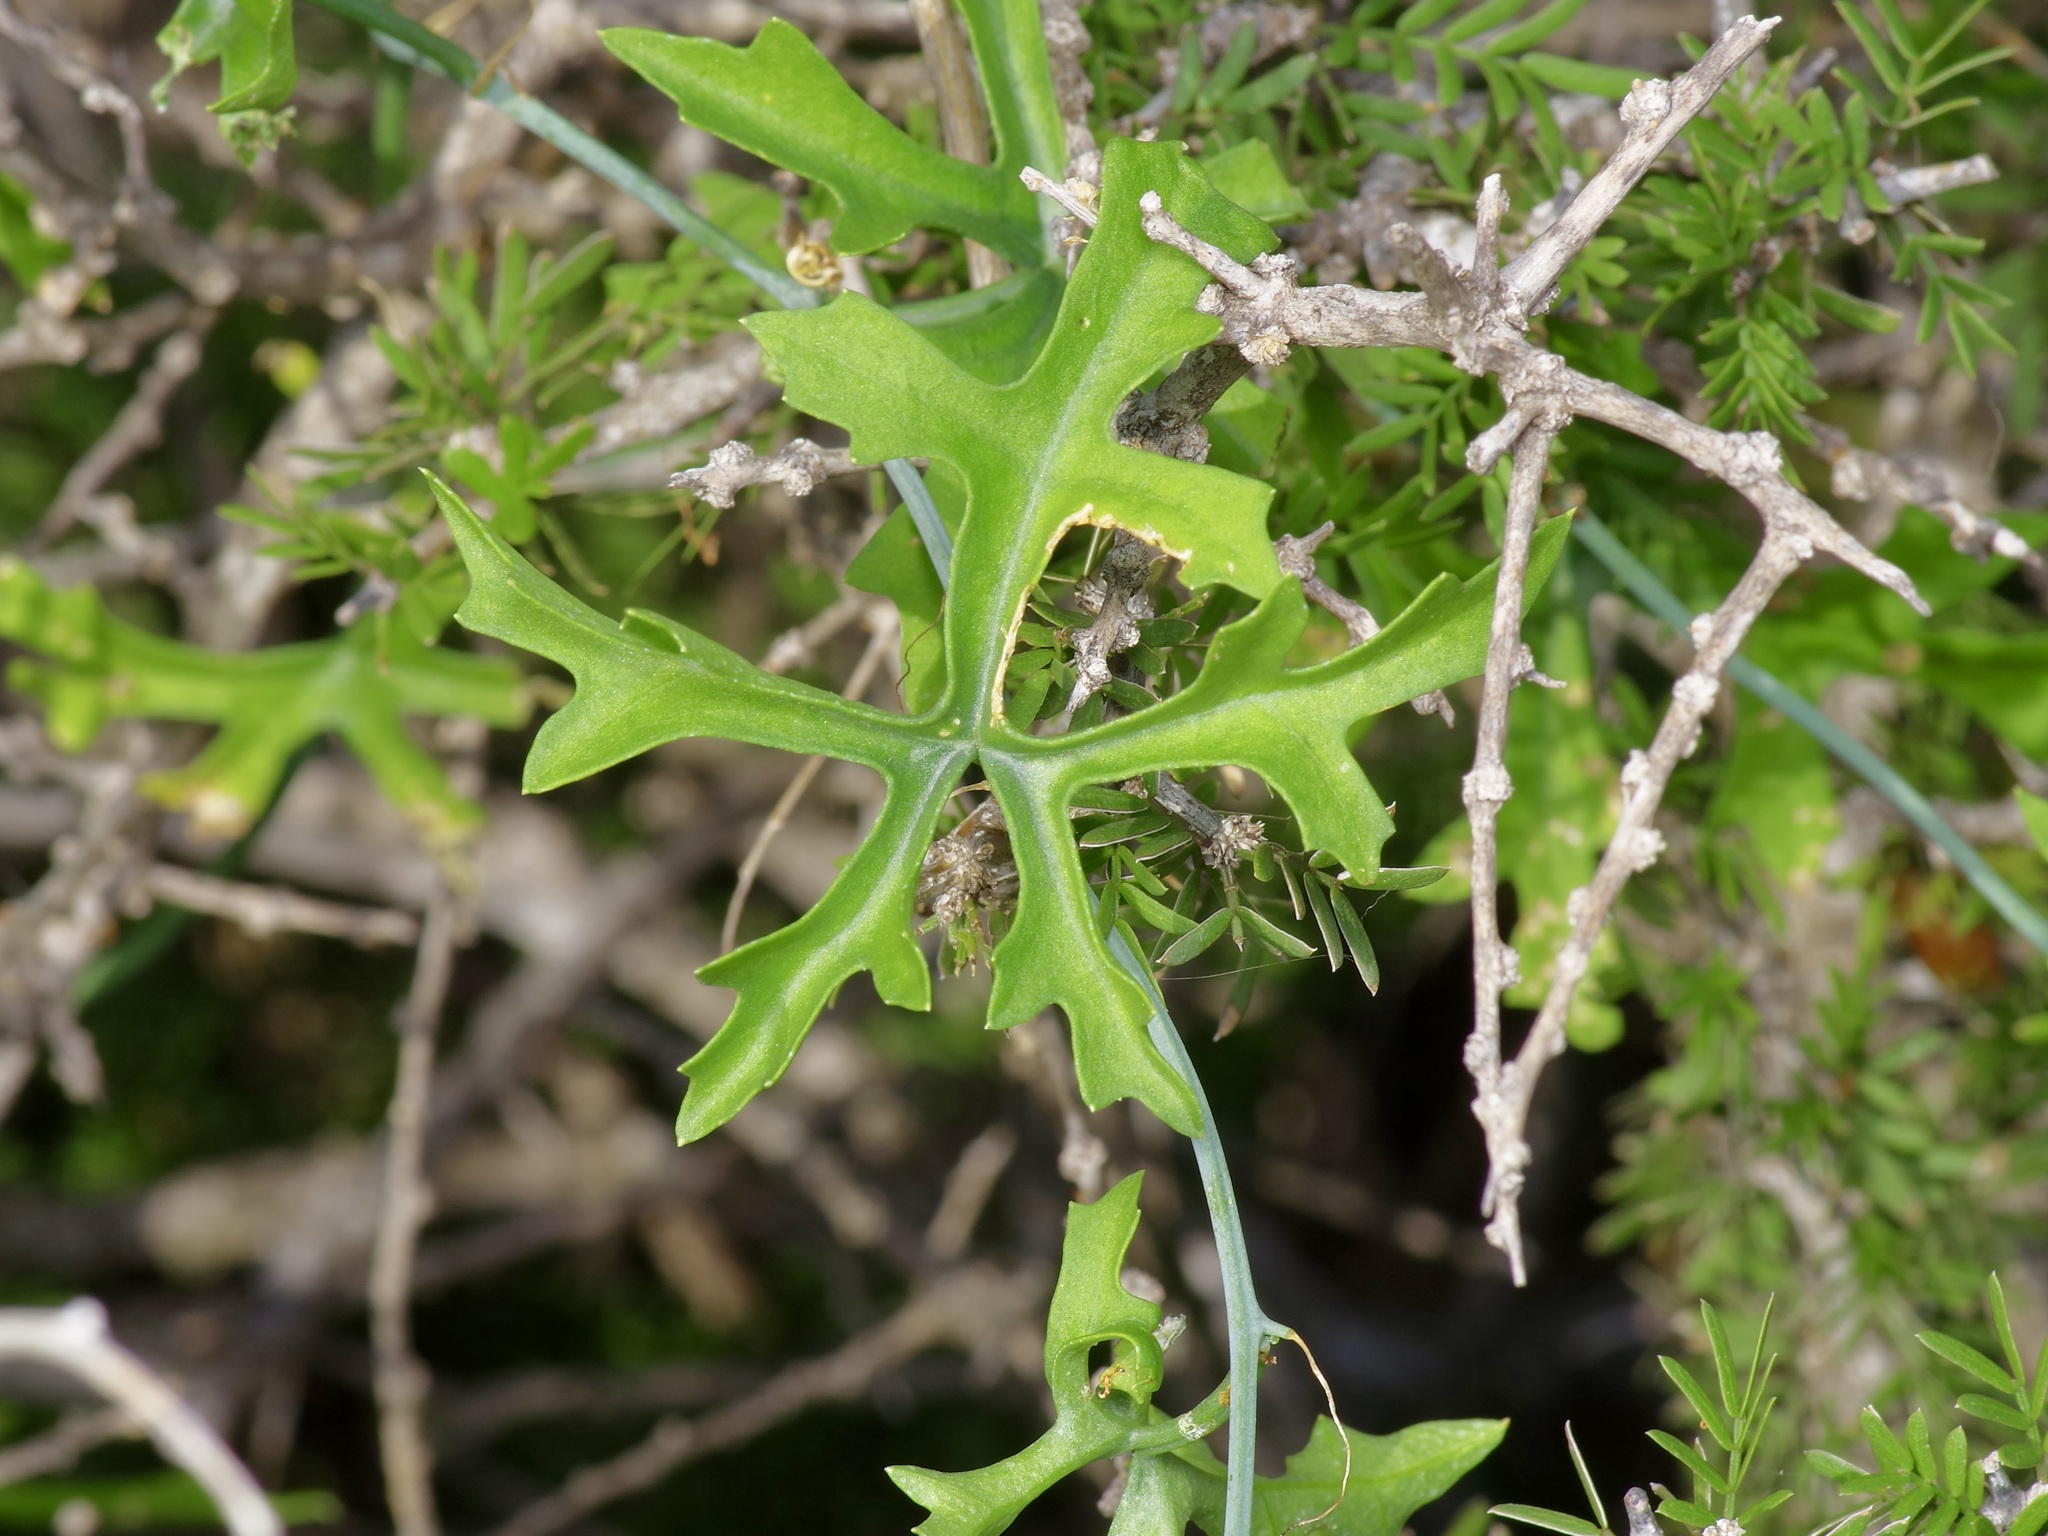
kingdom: Plantae
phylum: Tracheophyta
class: Magnoliopsida
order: Cucurbitales
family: Cucurbitaceae
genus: Ibervillea
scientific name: Ibervillea lindheimeri
